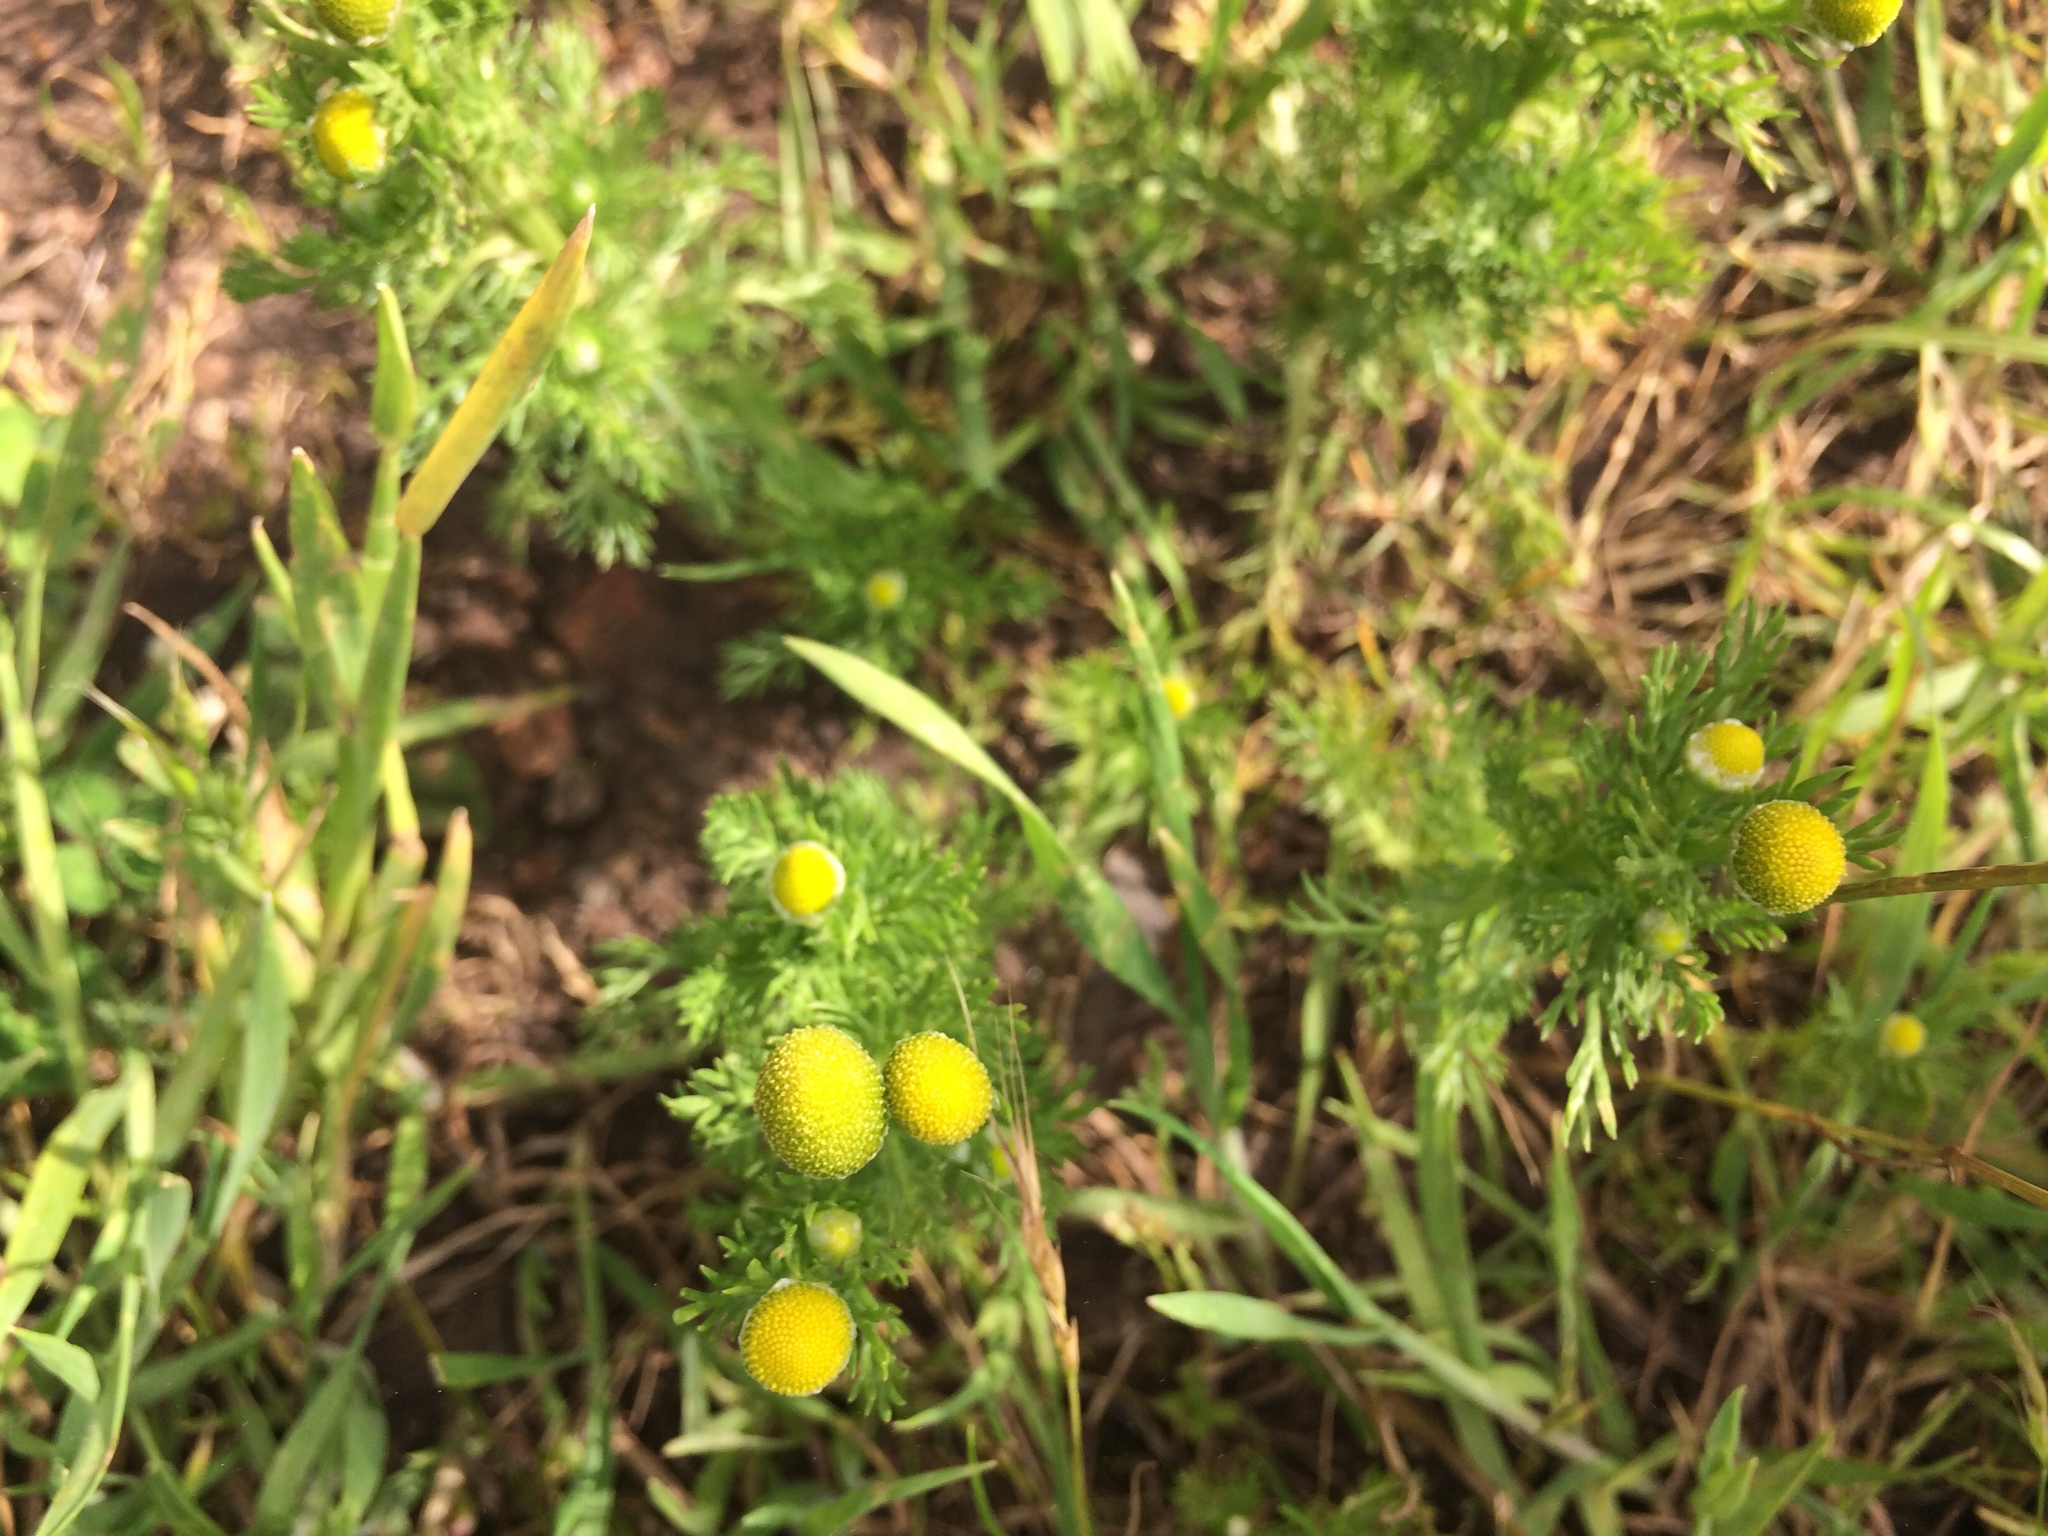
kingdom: Plantae
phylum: Tracheophyta
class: Magnoliopsida
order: Asterales
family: Asteraceae
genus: Matricaria
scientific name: Matricaria discoidea
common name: Disc mayweed
